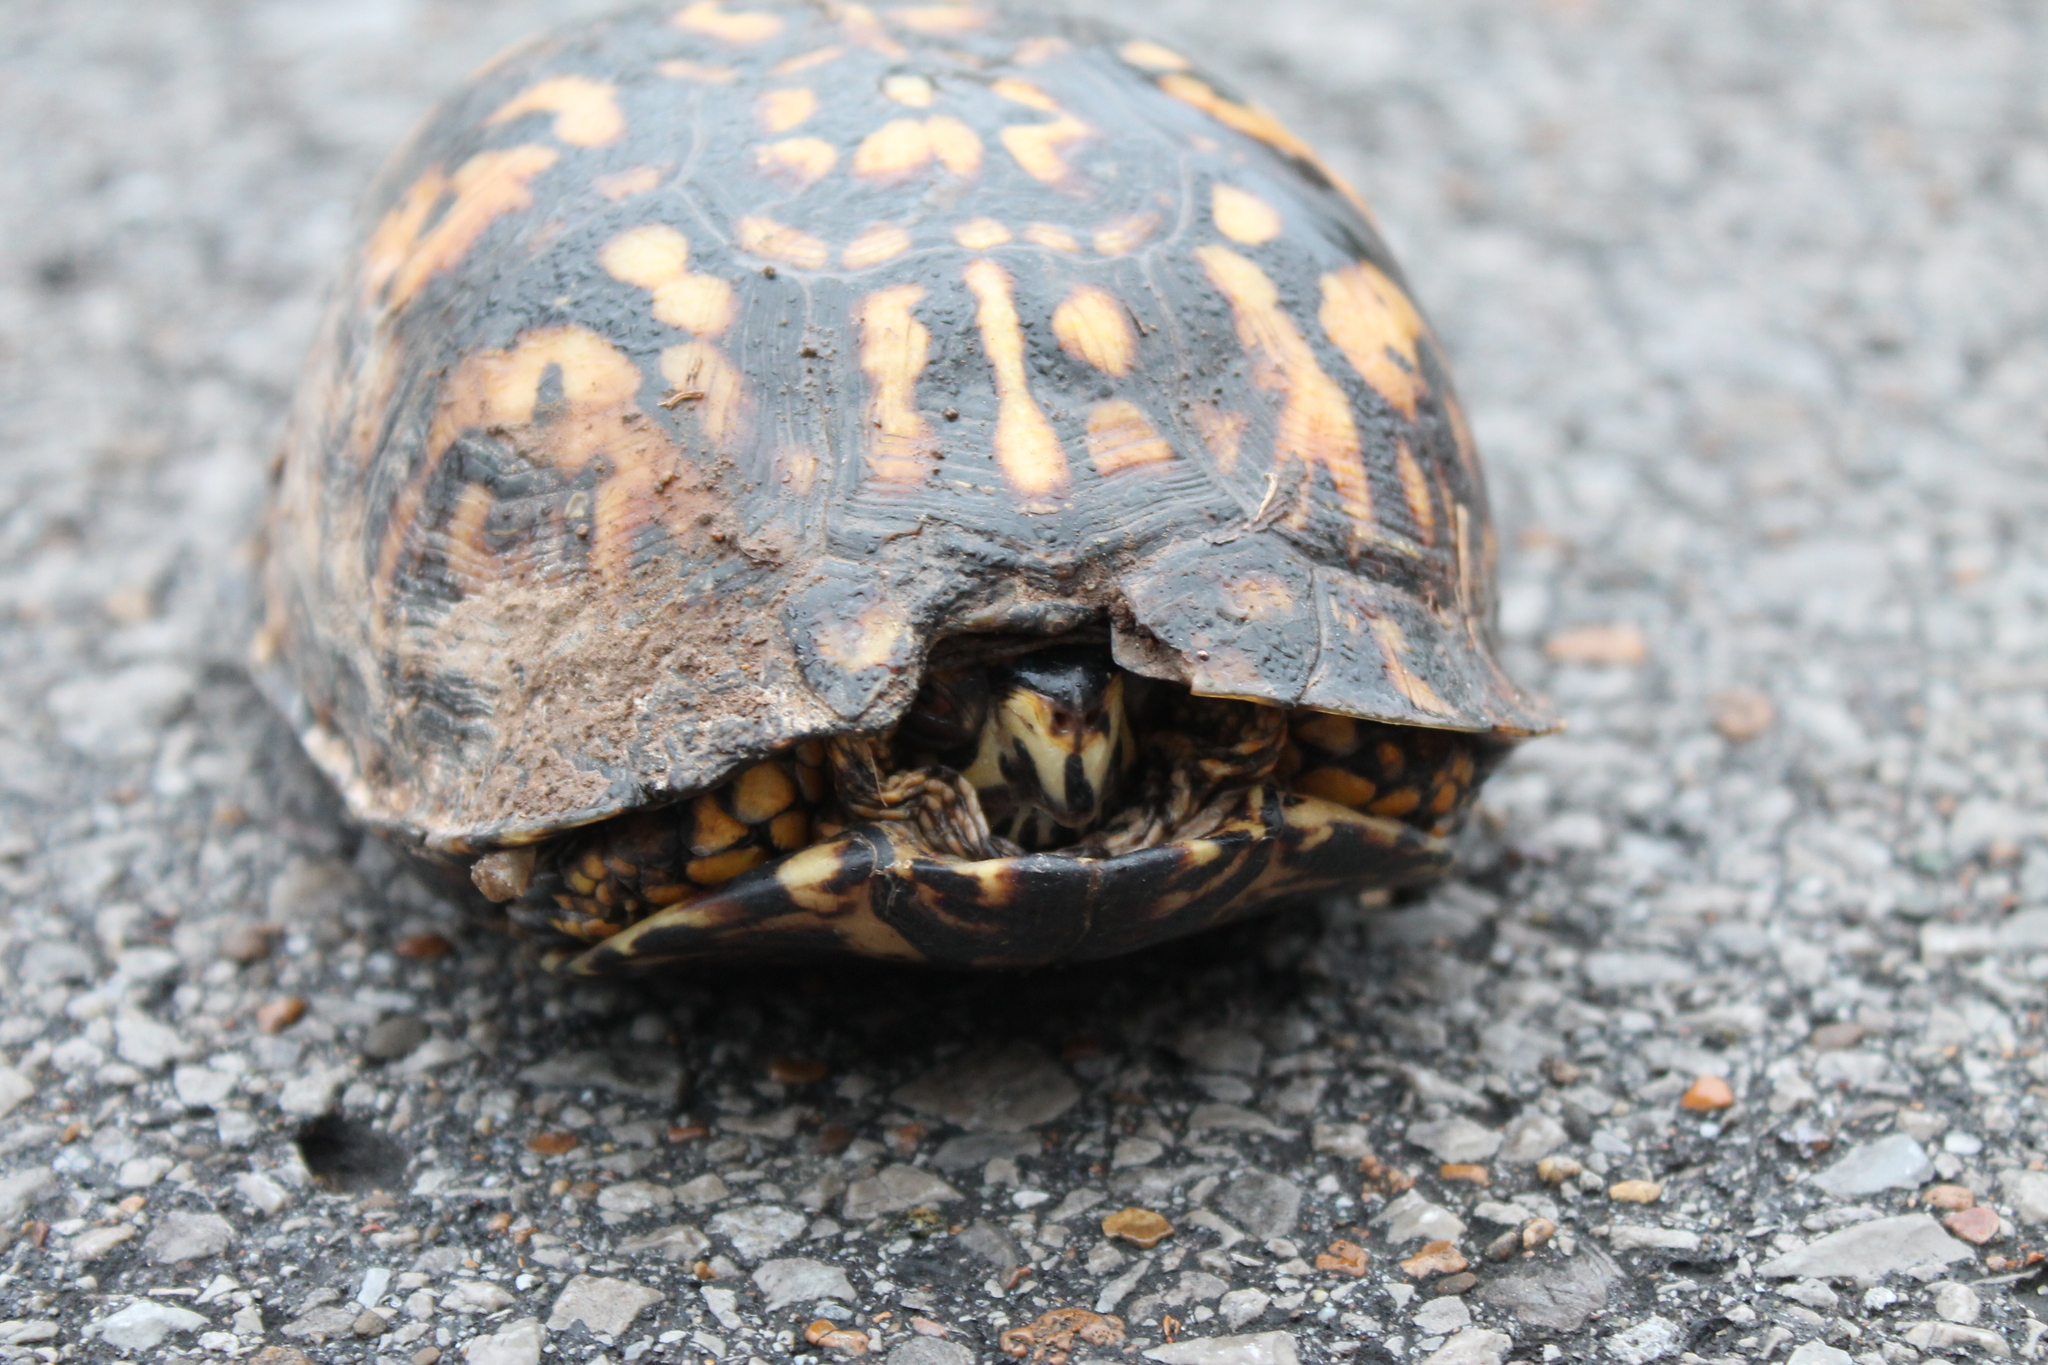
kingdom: Animalia
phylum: Chordata
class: Testudines
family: Emydidae
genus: Terrapene
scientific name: Terrapene carolina
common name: Common box turtle
